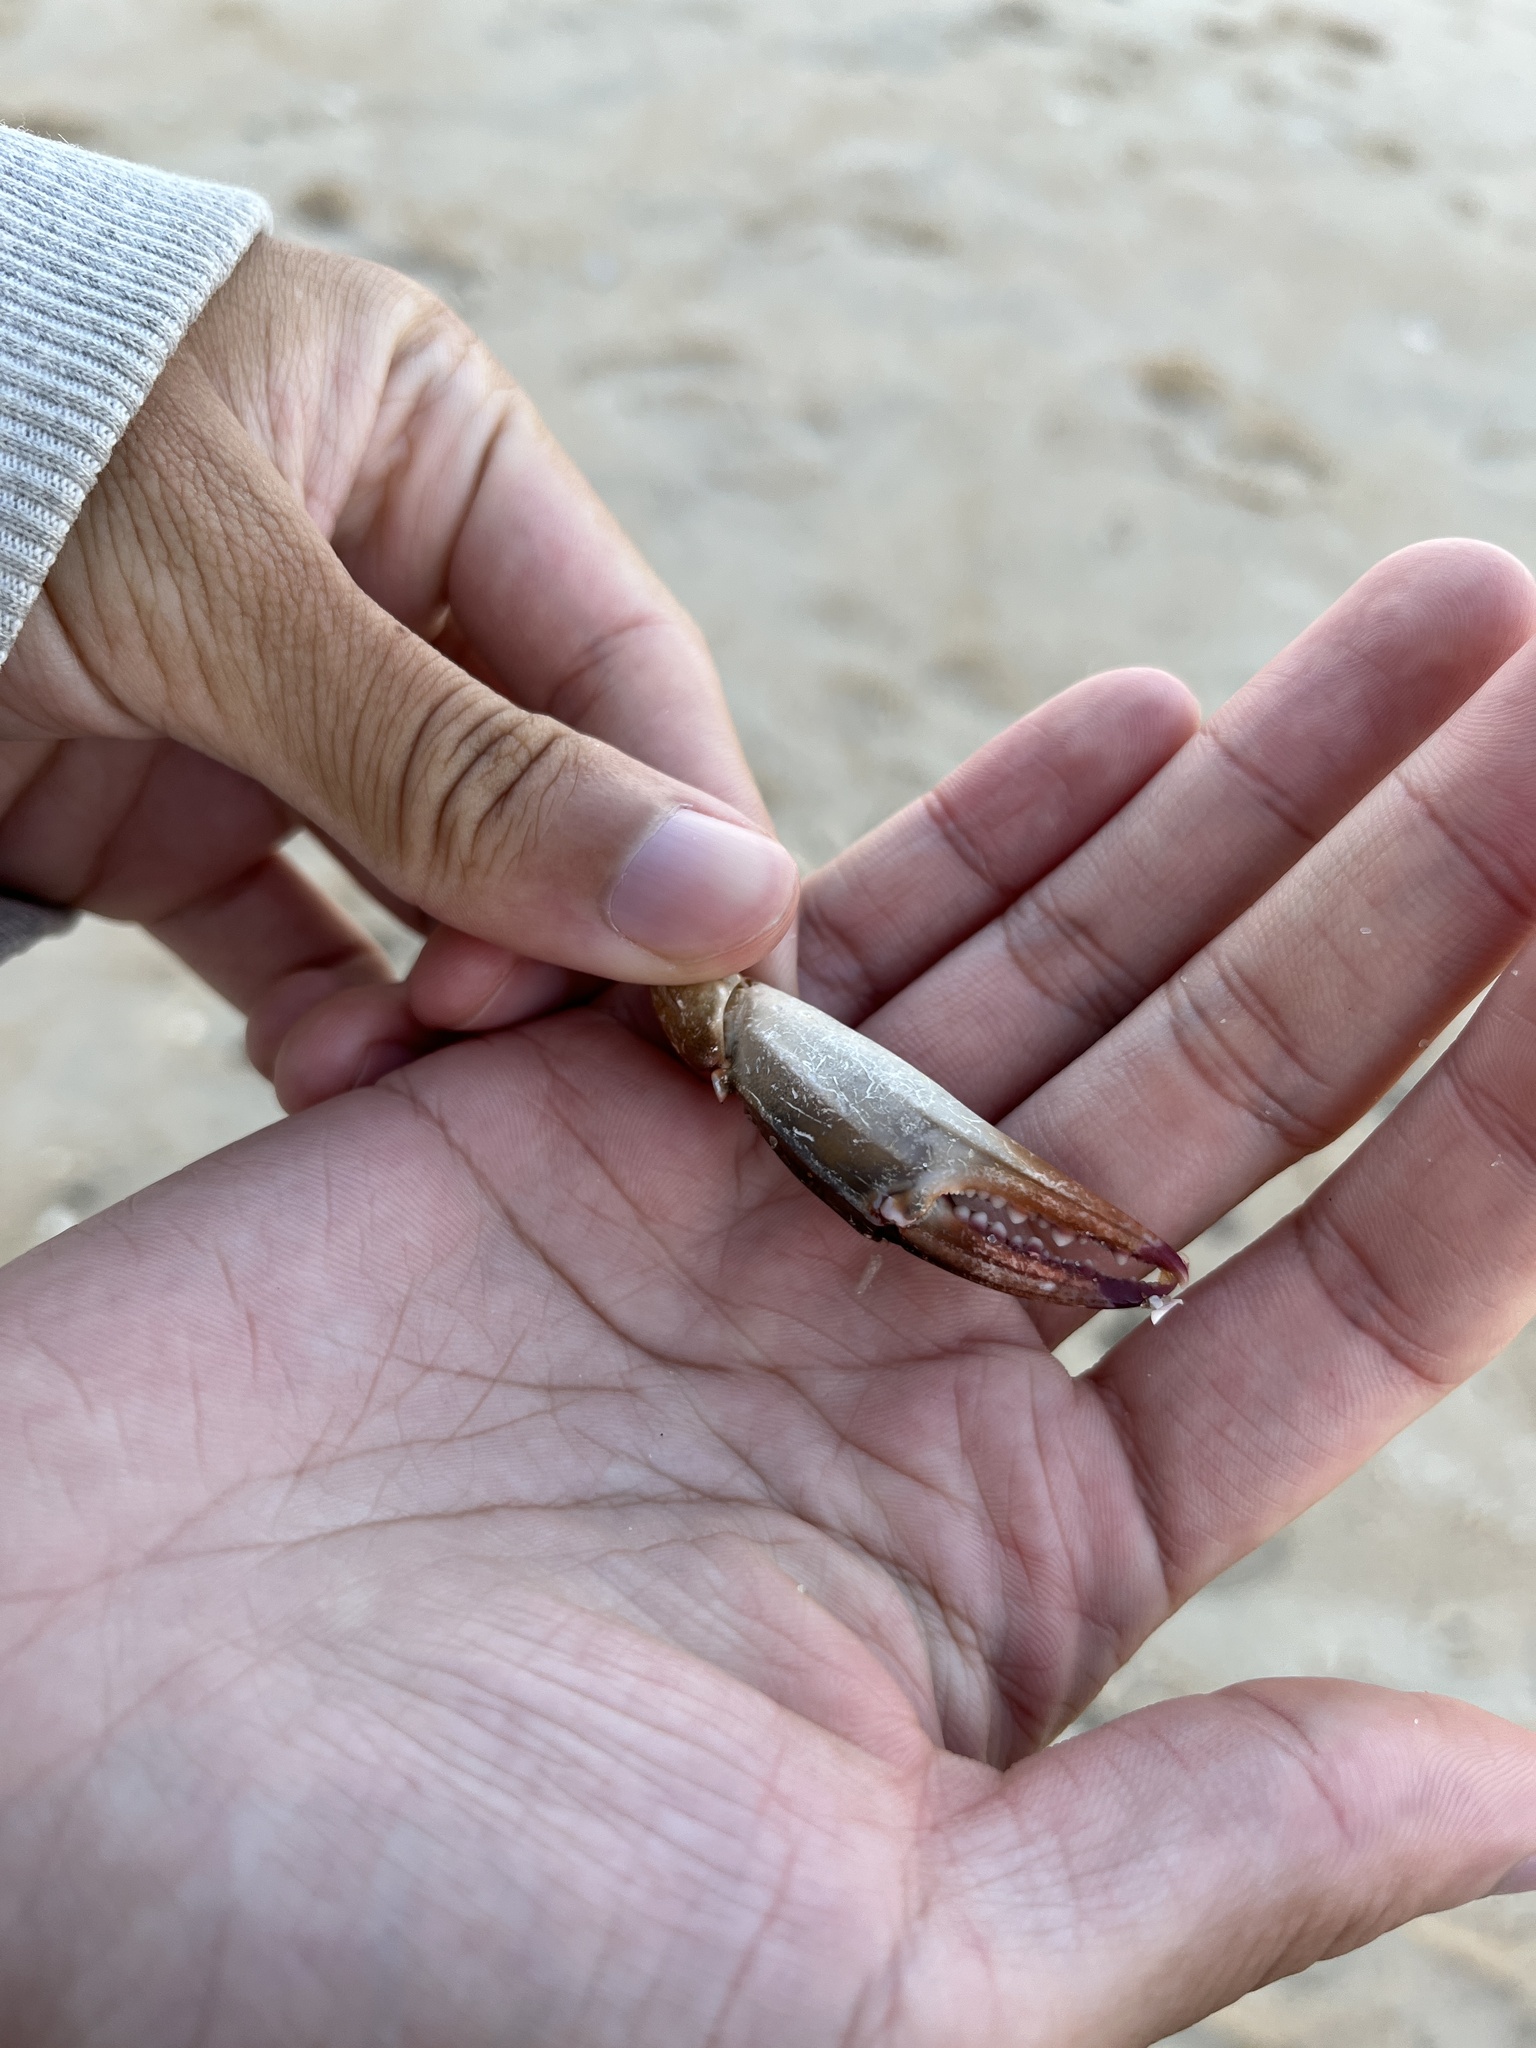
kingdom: Animalia
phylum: Arthropoda
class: Malacostraca
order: Decapoda
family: Portunidae
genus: Callinectes
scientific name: Callinectes sapidus
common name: Blue crab
